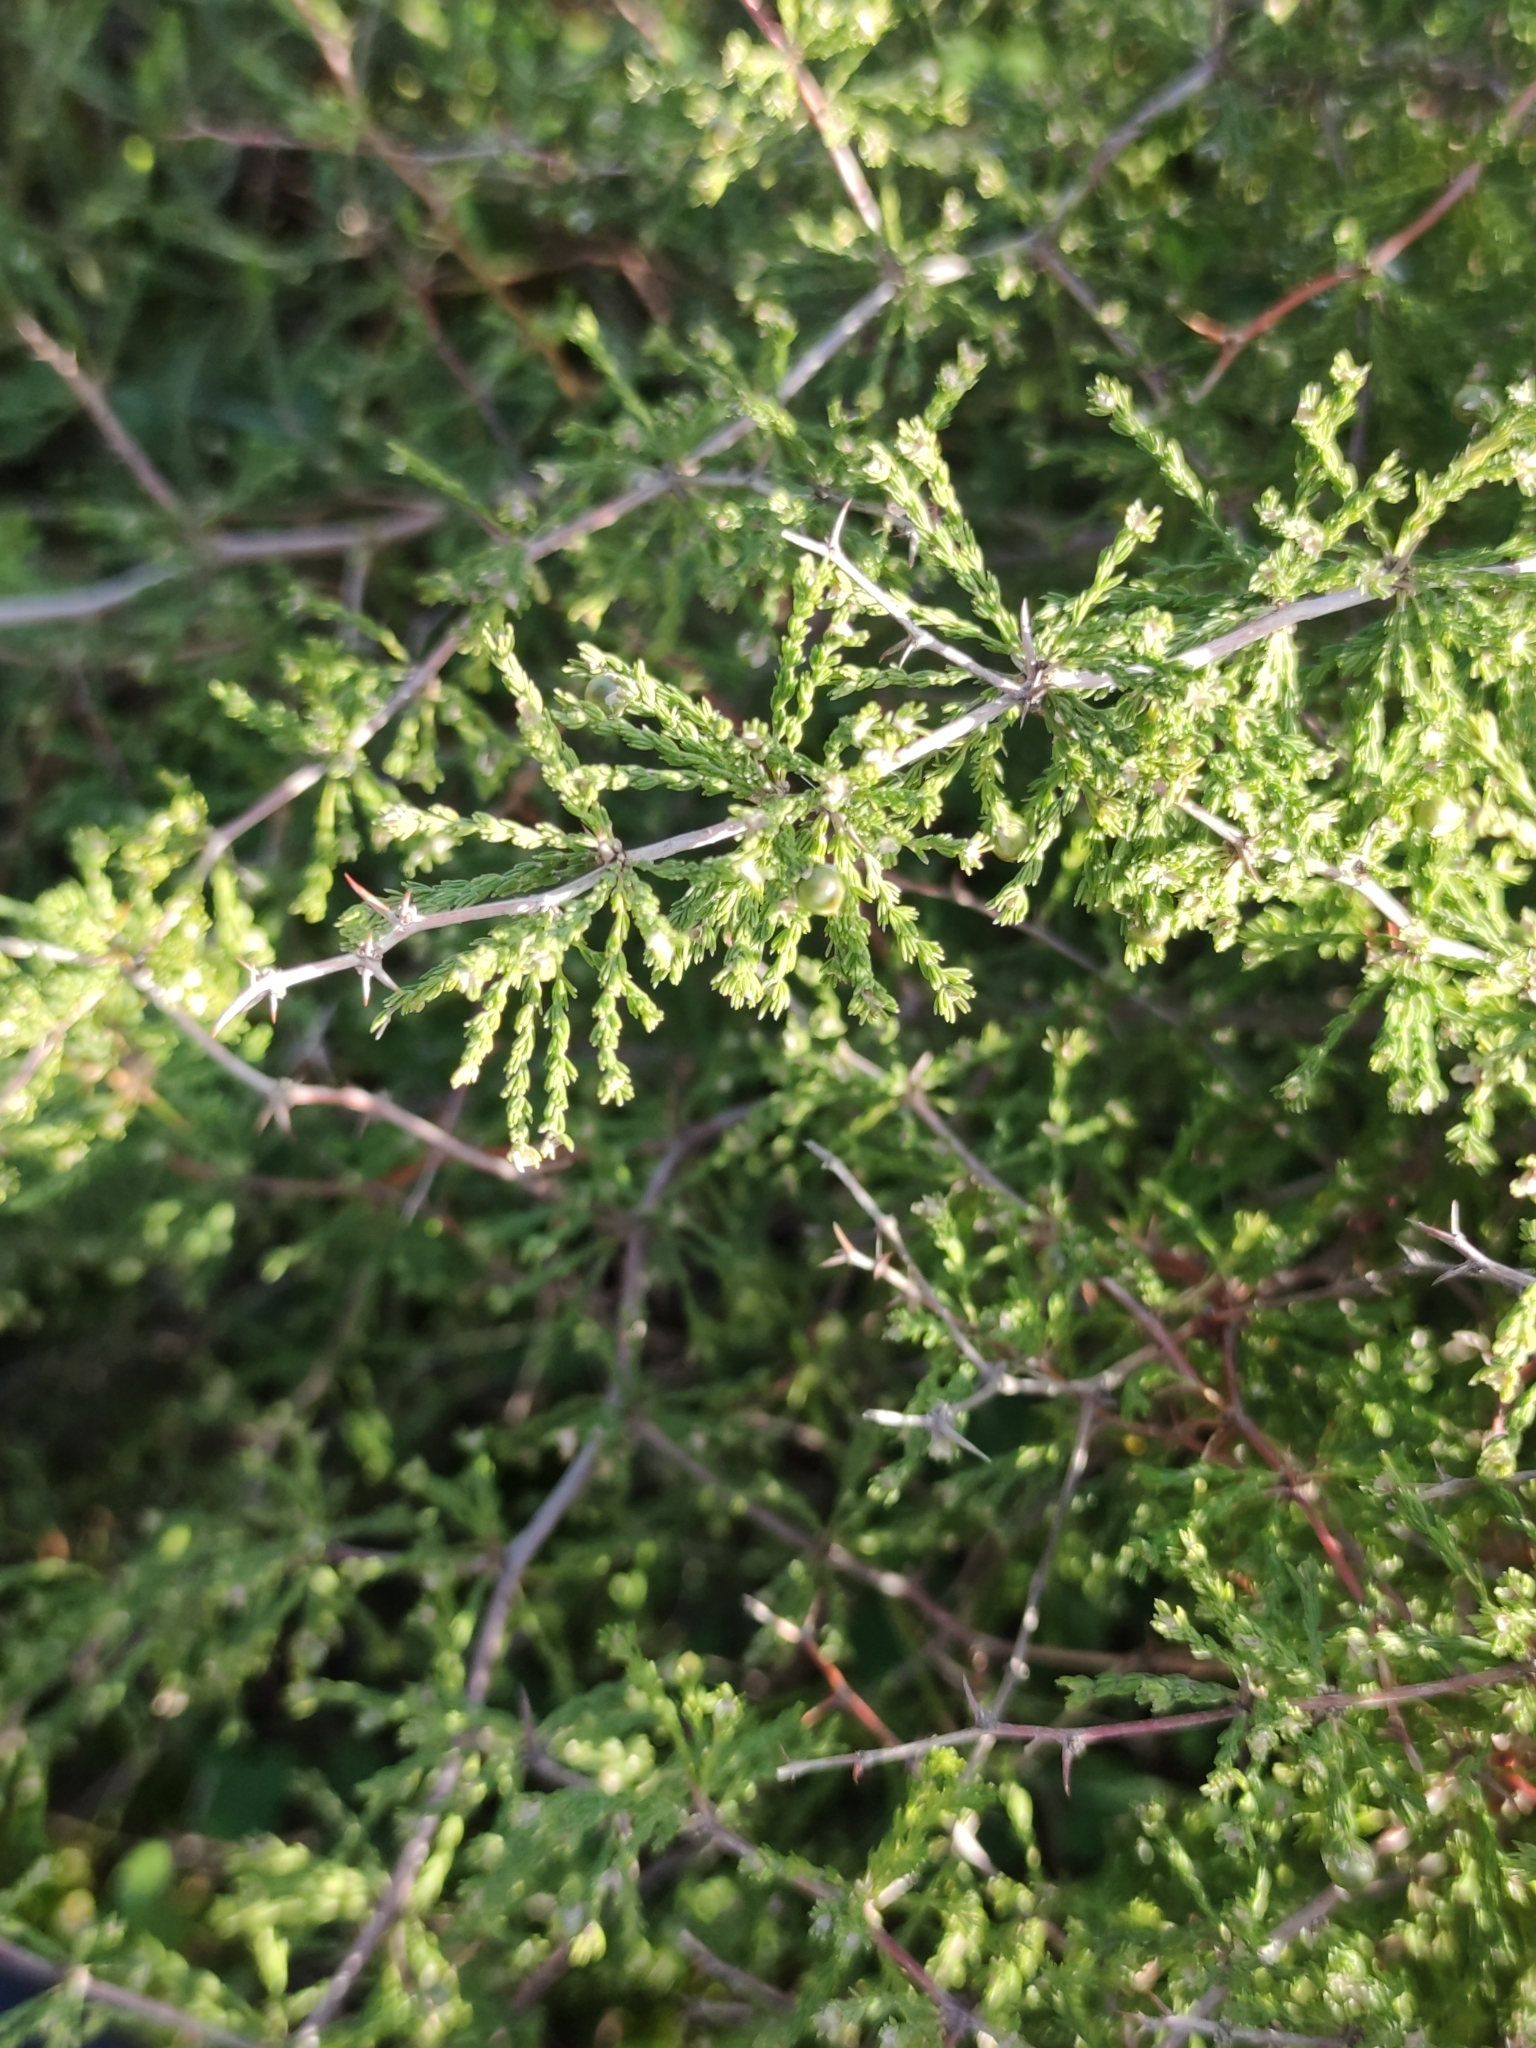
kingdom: Plantae
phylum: Tracheophyta
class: Liliopsida
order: Asparagales
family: Asparagaceae
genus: Asparagus
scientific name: Asparagus capensis
